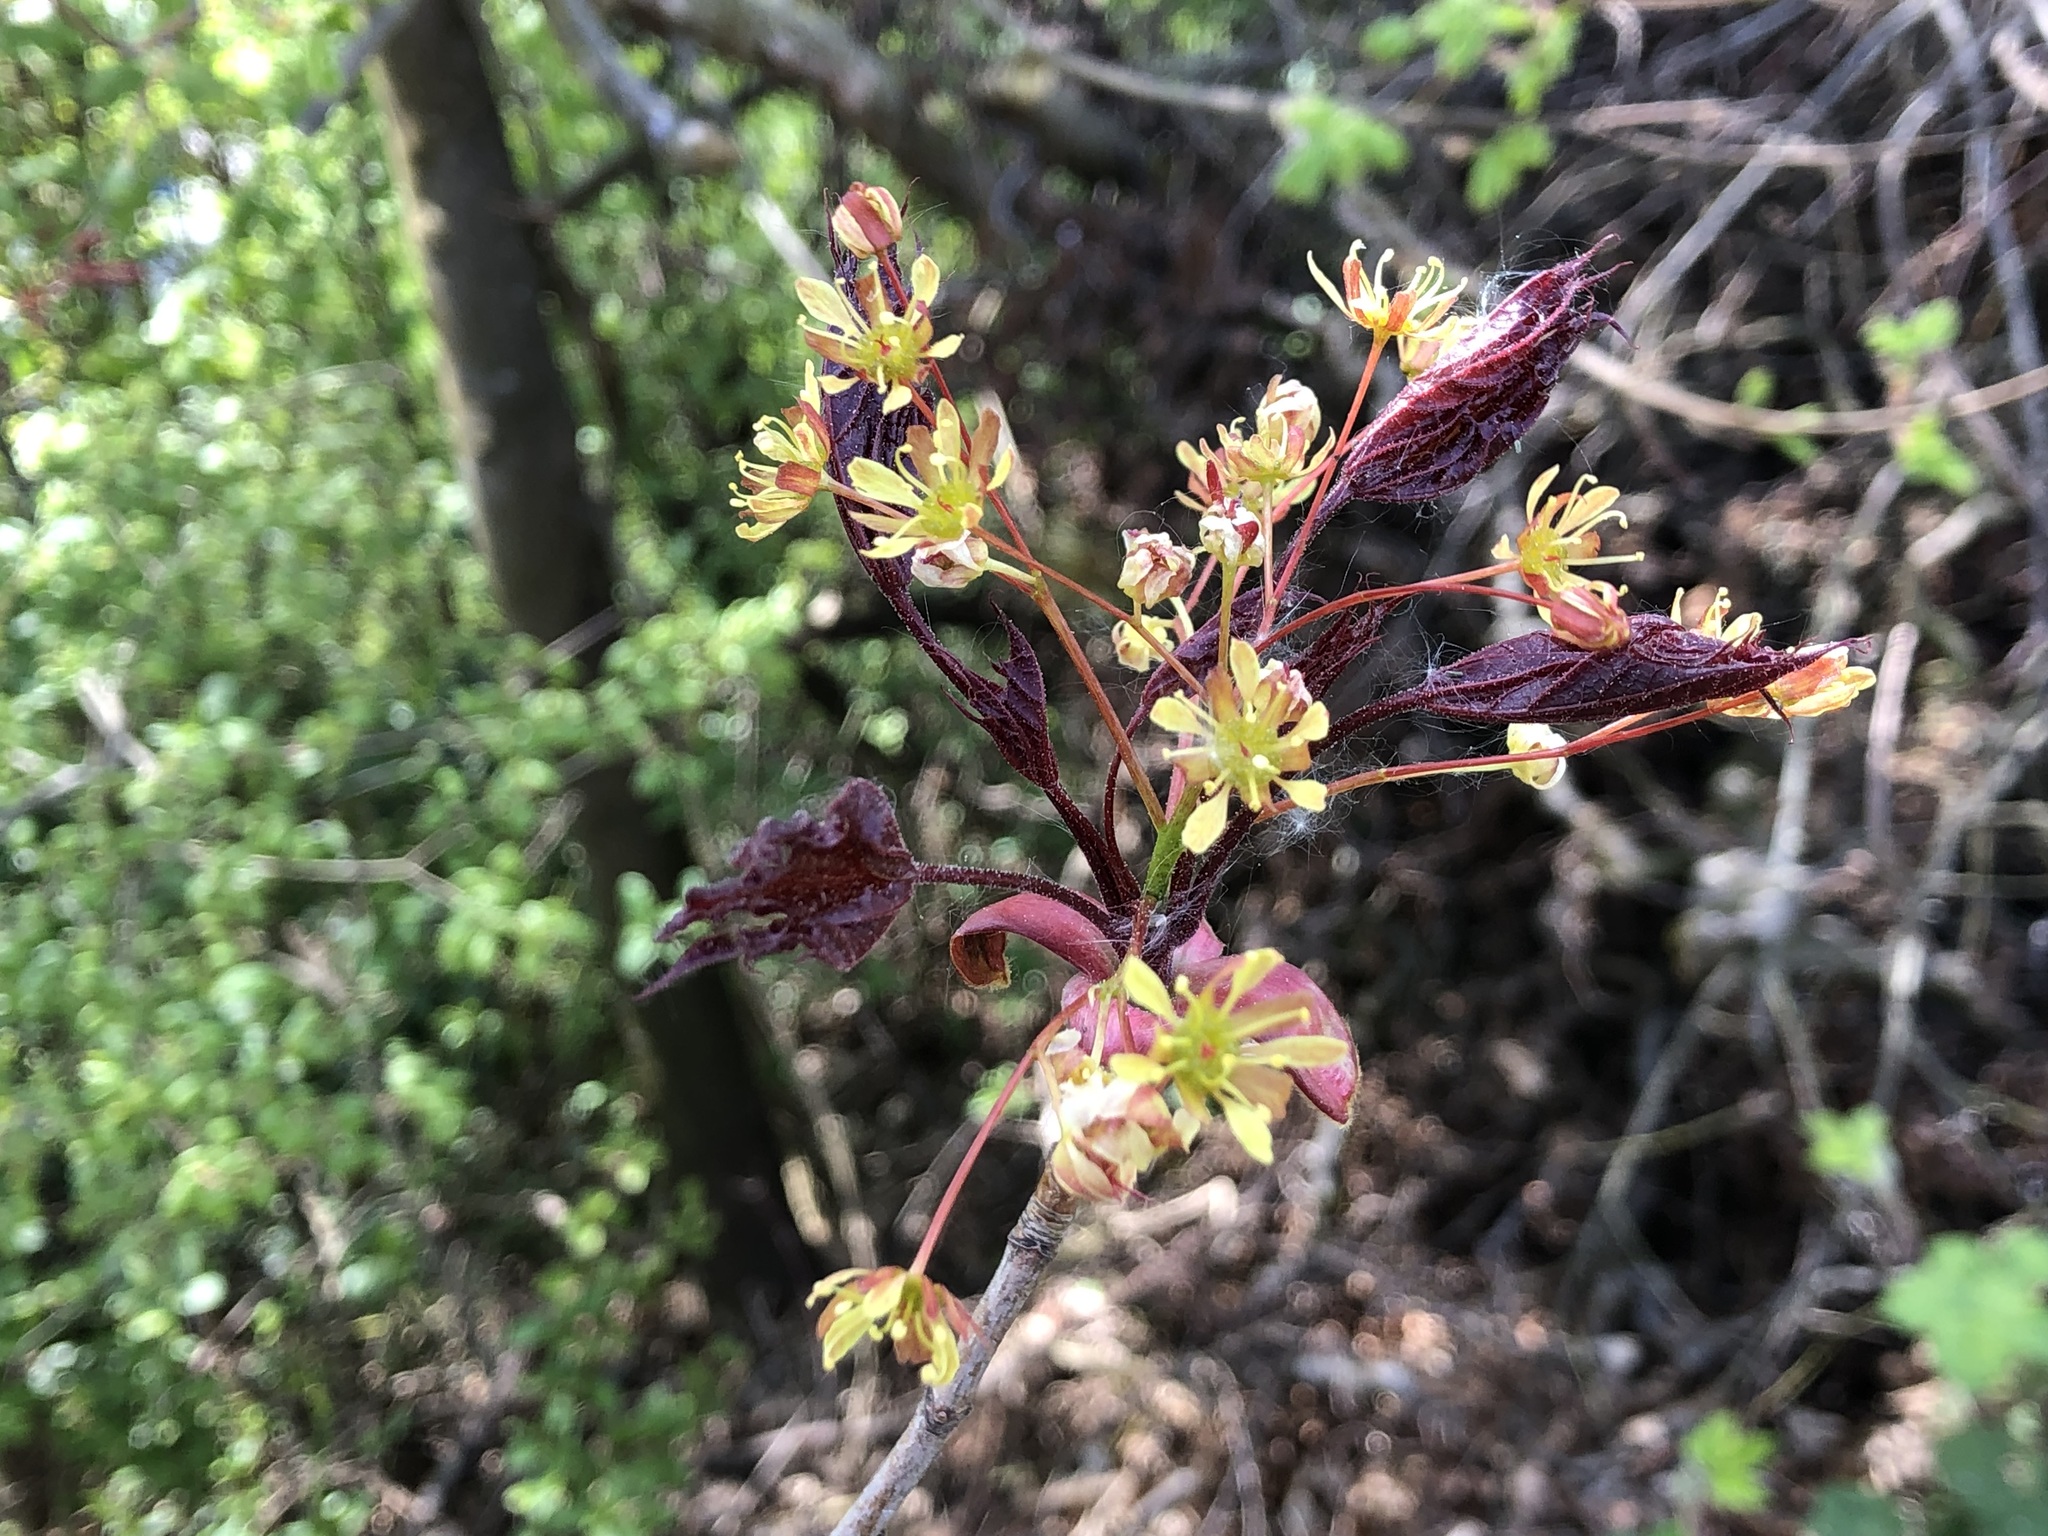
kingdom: Plantae
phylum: Tracheophyta
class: Magnoliopsida
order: Sapindales
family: Sapindaceae
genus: Acer
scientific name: Acer platanoides
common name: Norway maple
